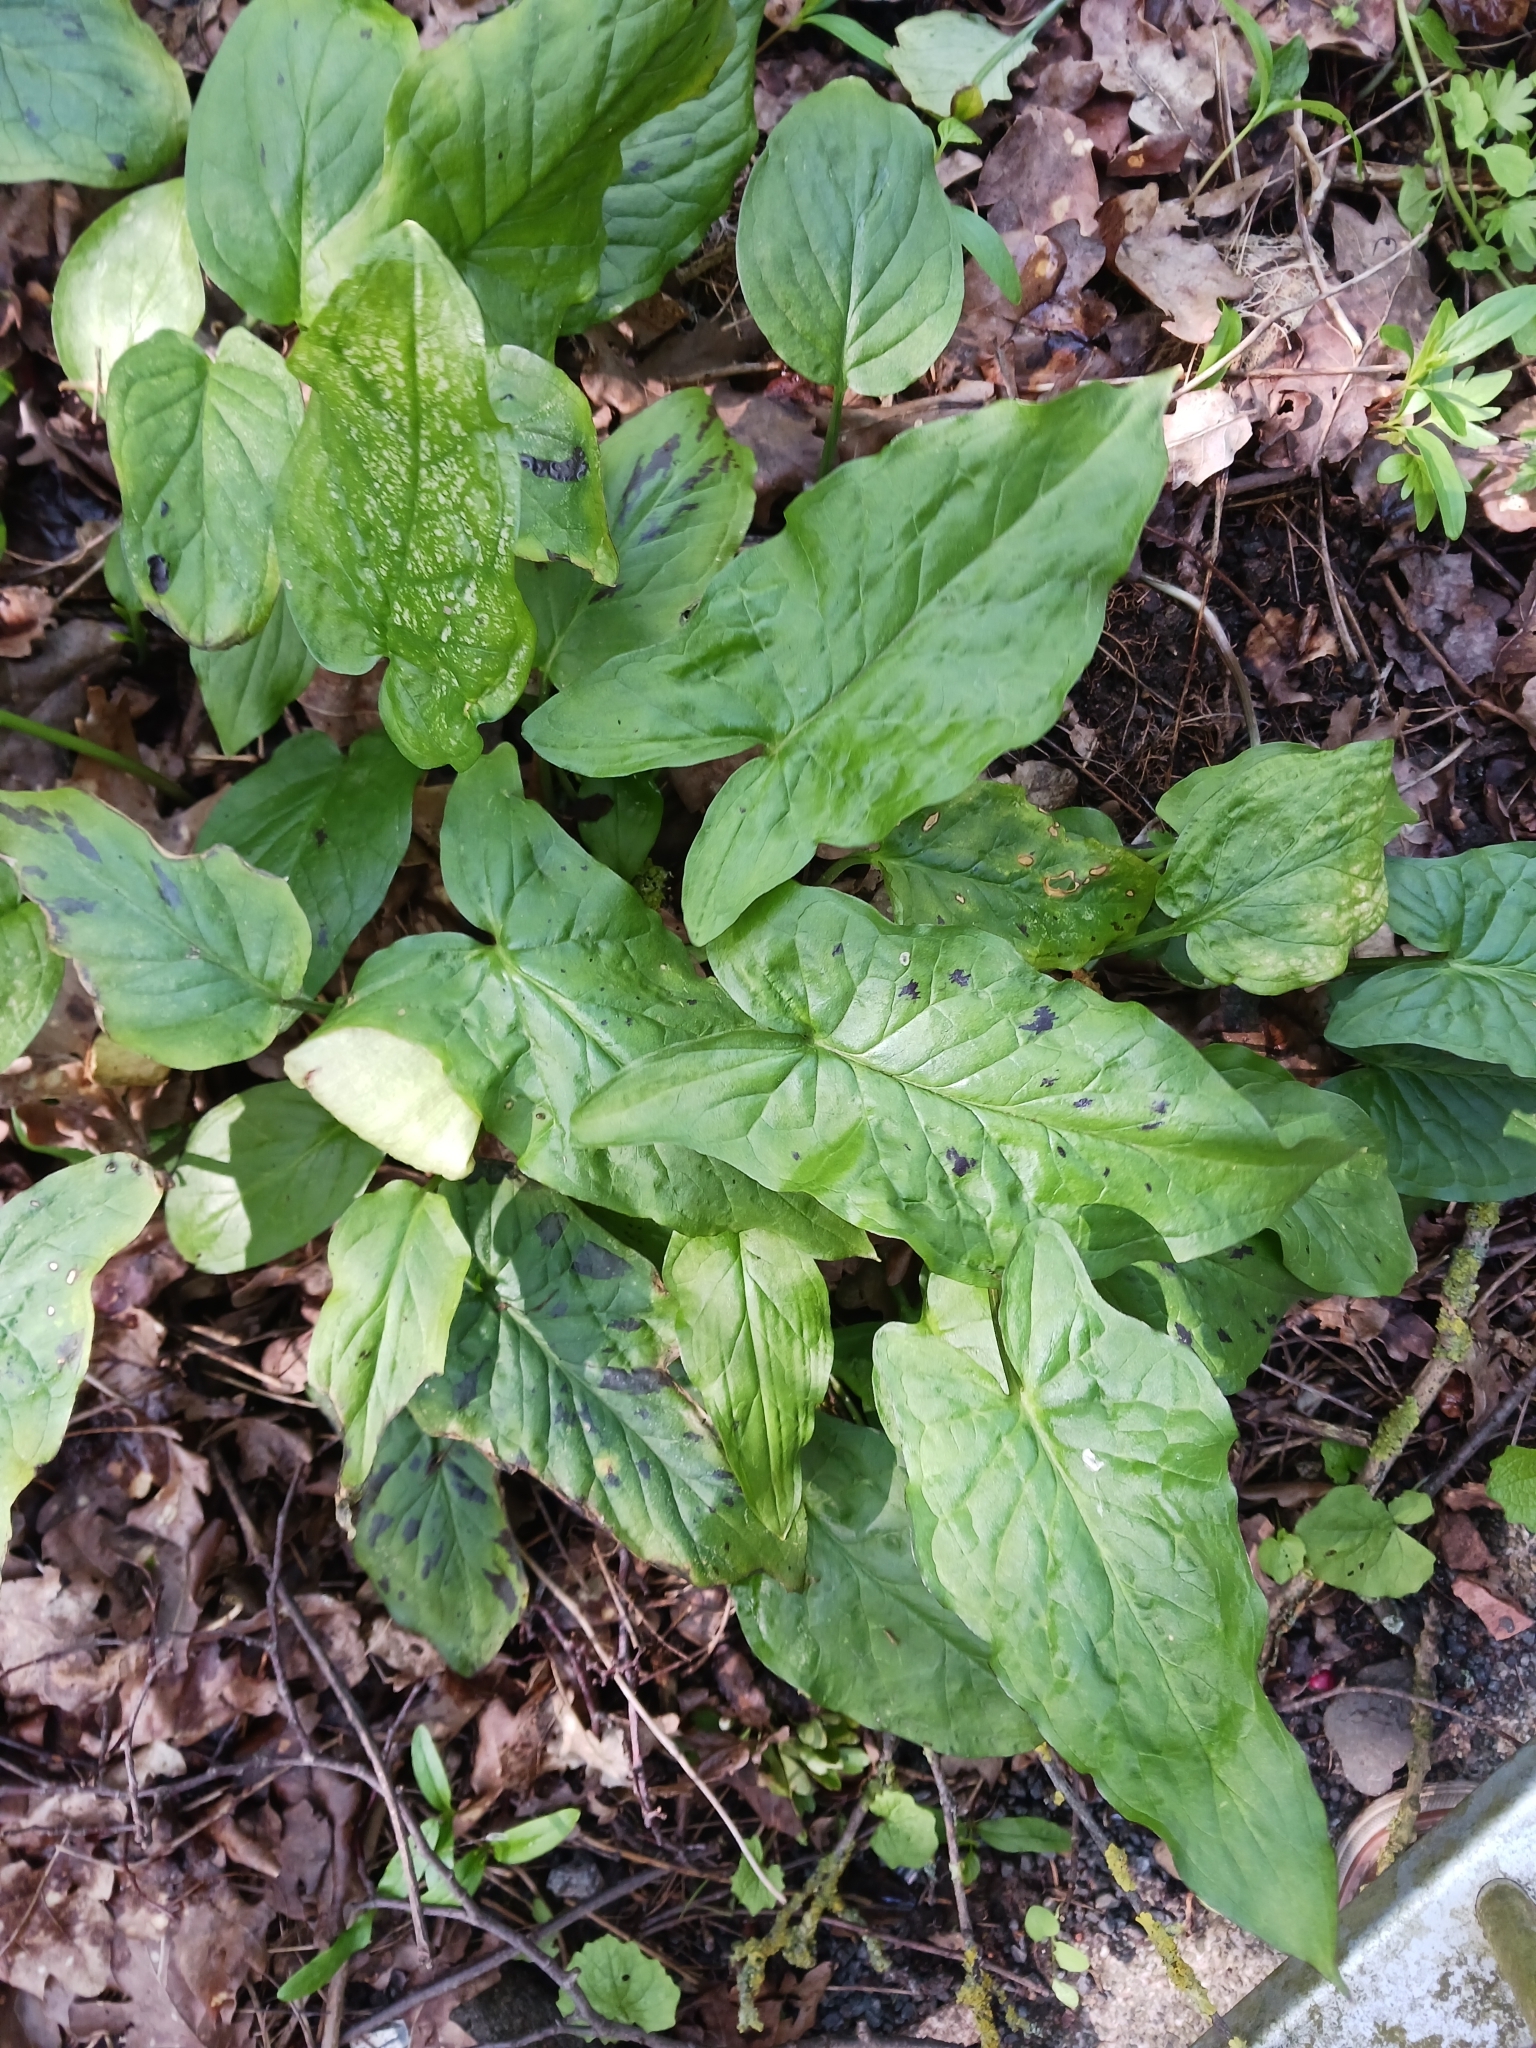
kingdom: Plantae
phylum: Tracheophyta
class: Liliopsida
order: Alismatales
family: Araceae
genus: Arum
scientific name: Arum maculatum
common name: Lords-and-ladies
